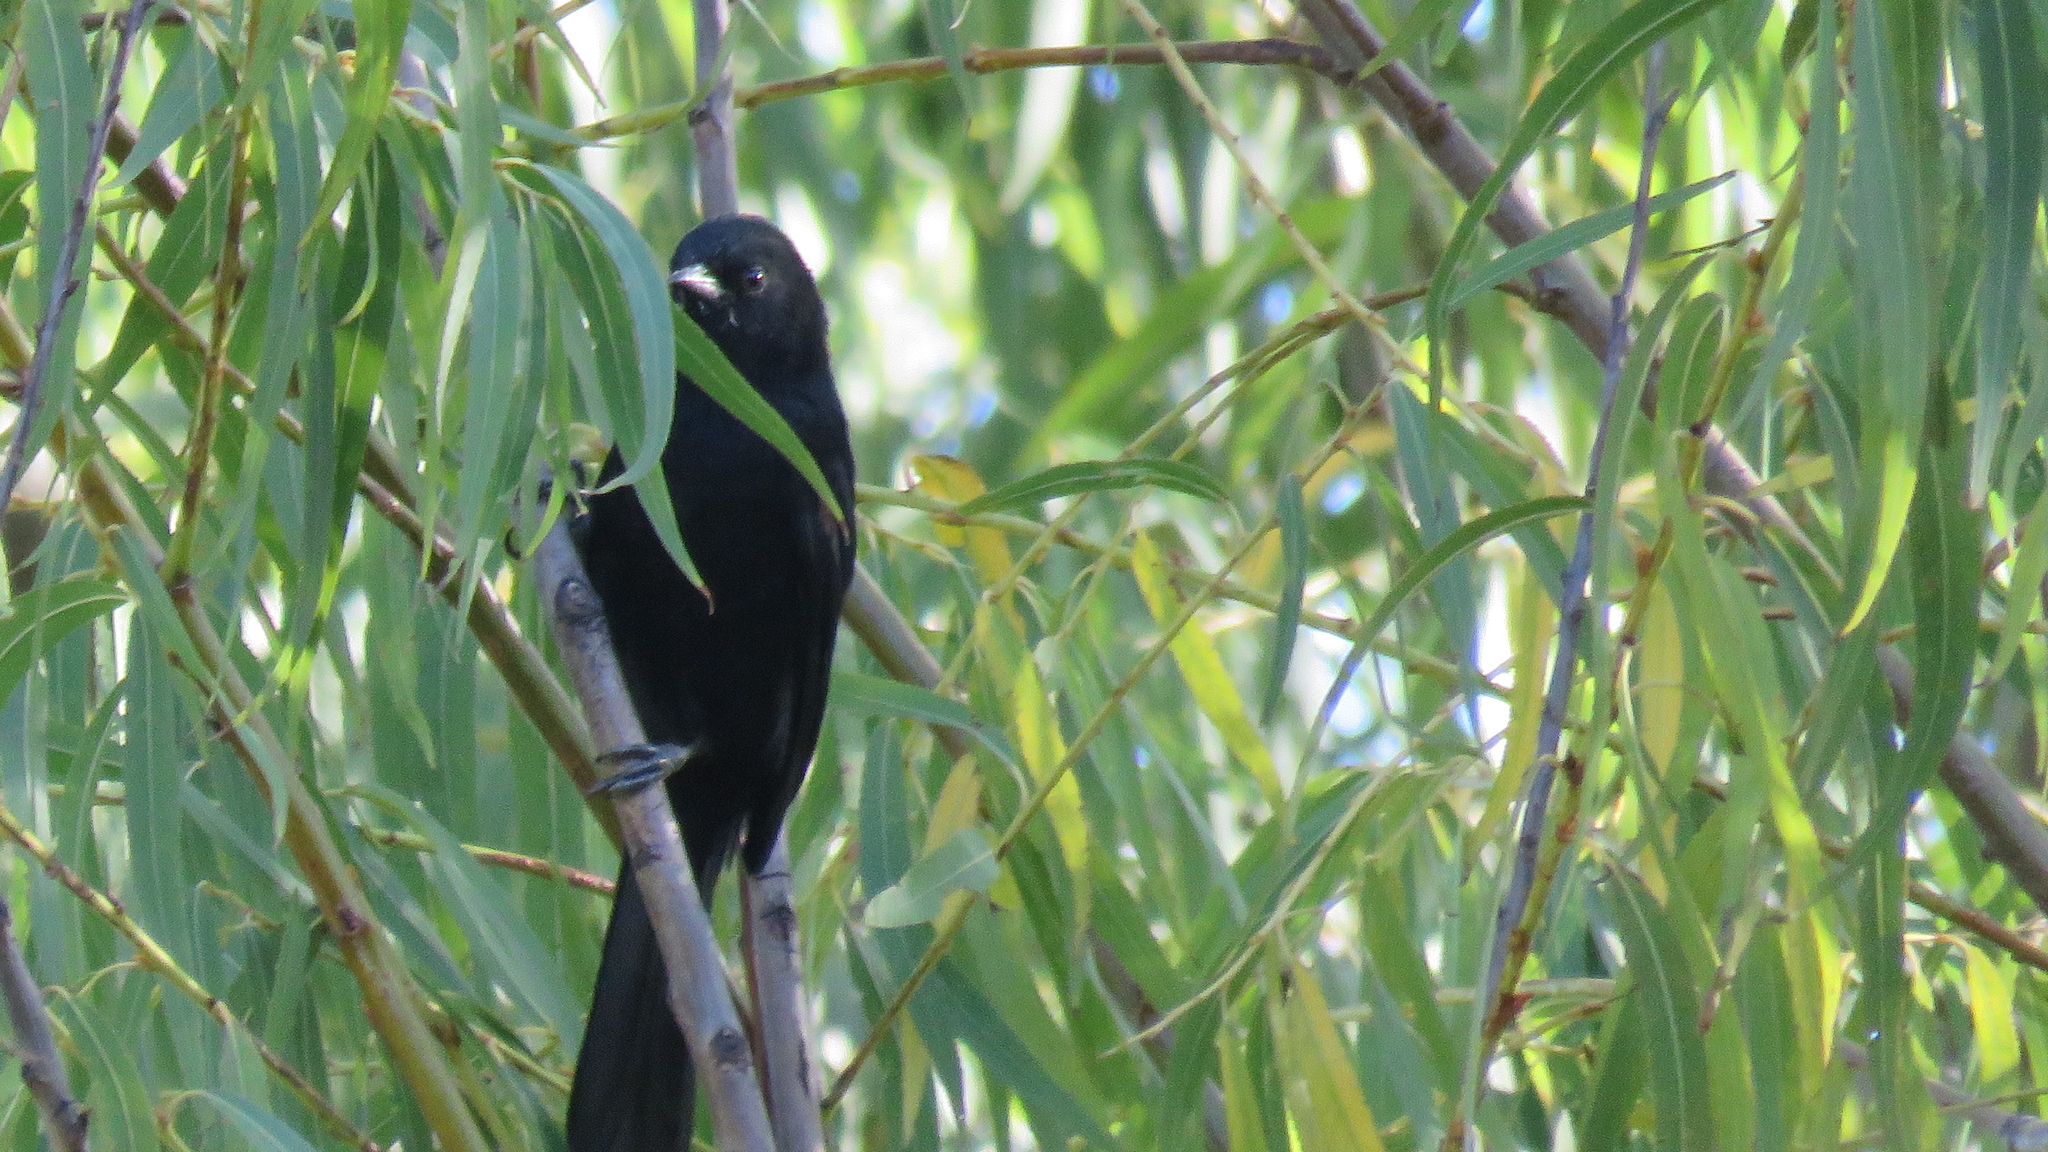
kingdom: Animalia
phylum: Chordata
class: Aves
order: Passeriformes
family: Icteridae
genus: Icterus
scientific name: Icterus cayanensis
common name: Epaulet oriole
